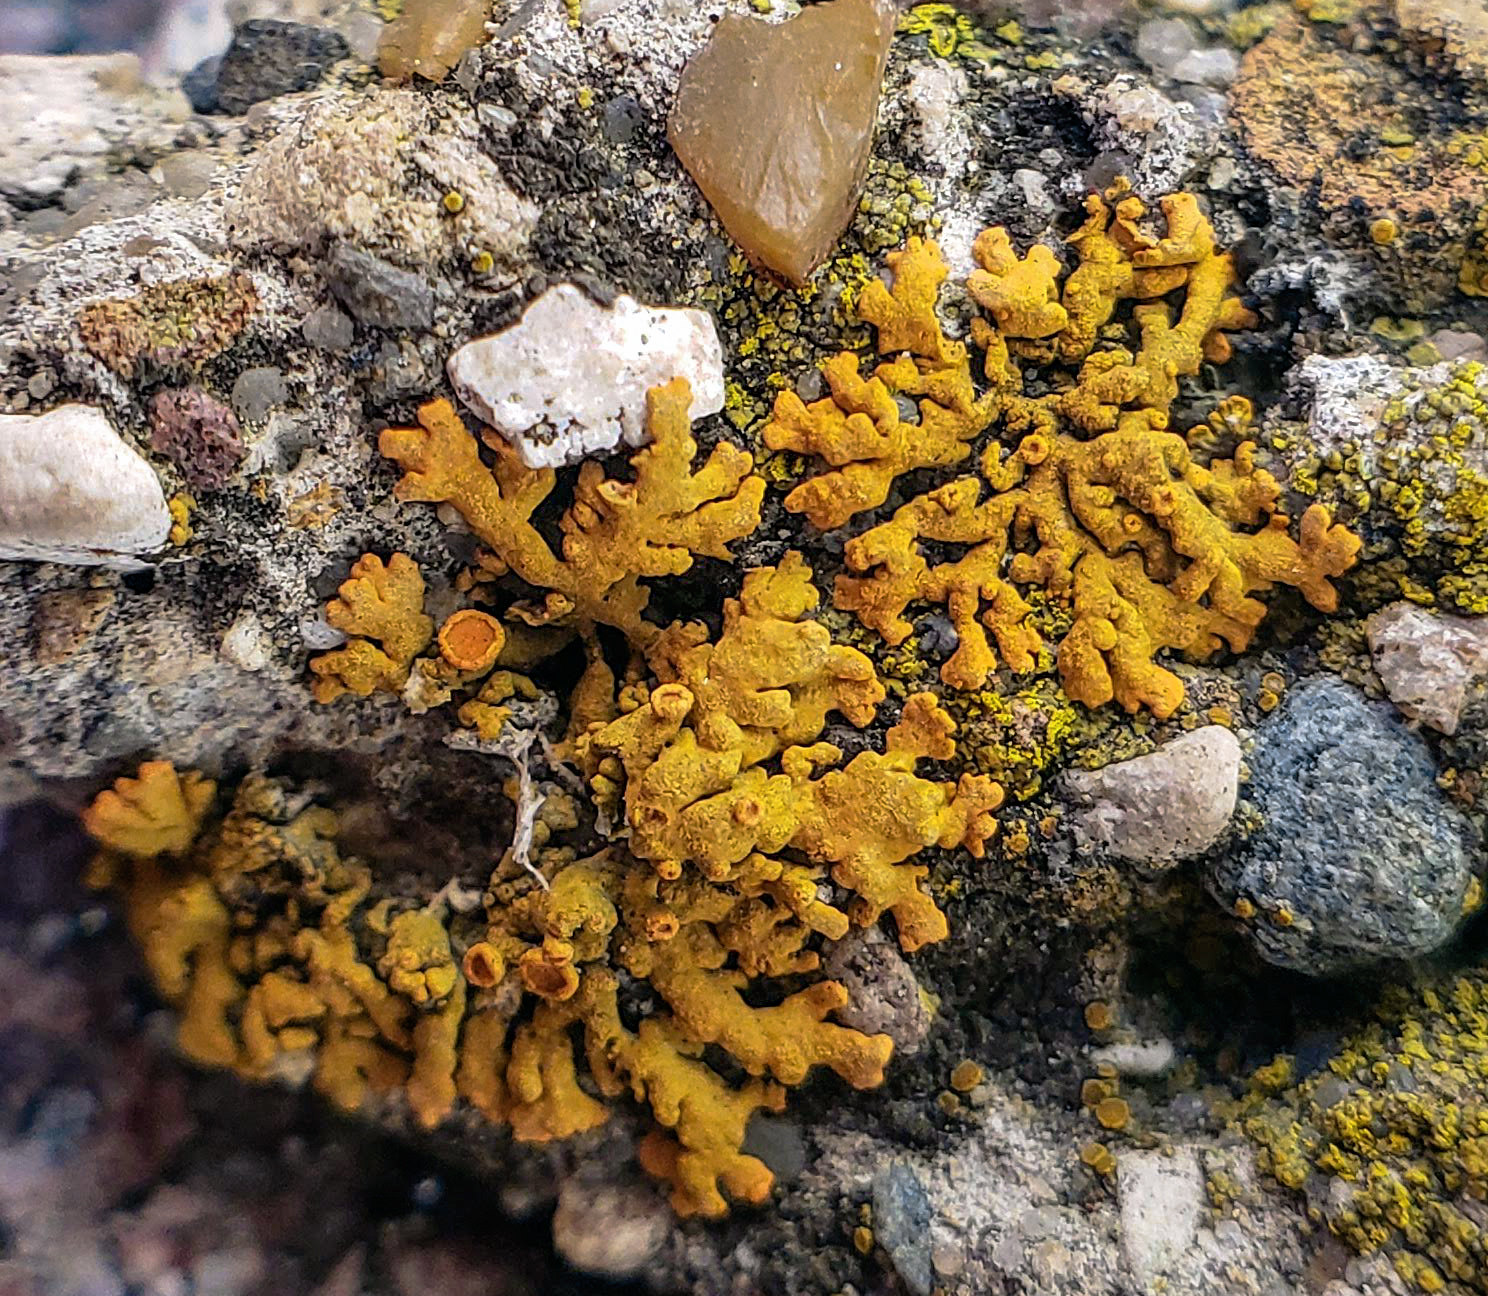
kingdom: Fungi
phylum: Ascomycota
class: Lecanoromycetes
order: Teloschistales
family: Teloschistaceae
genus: Xanthoria
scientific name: Xanthoria elegans
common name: Elegant sunburst lichen
